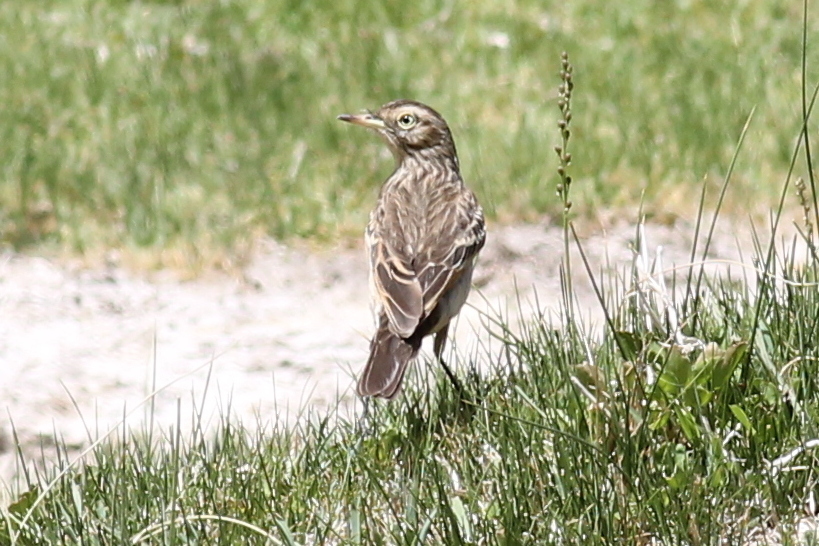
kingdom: Animalia
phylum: Chordata
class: Aves
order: Passeriformes
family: Tyrannidae
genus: Hymenops
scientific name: Hymenops perspicillatus
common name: Spectacled tyrant
